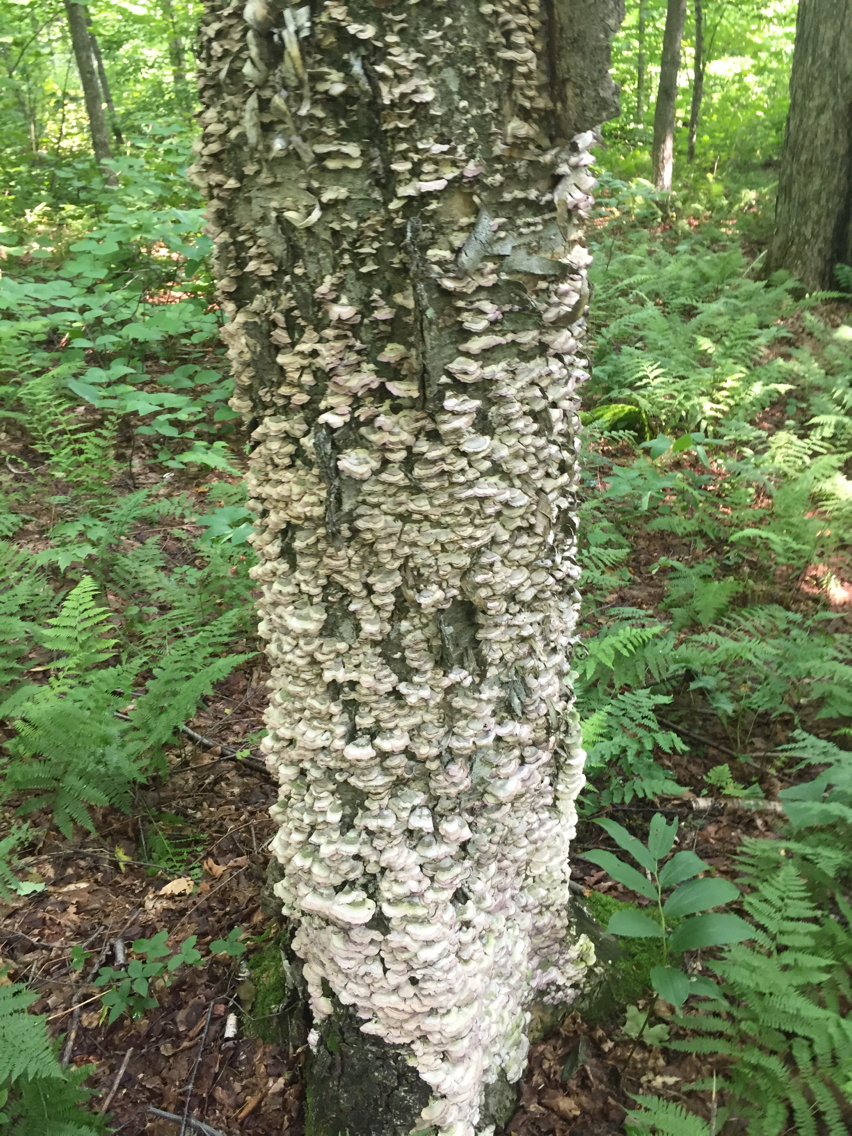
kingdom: Fungi
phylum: Basidiomycota
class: Agaricomycetes
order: Polyporales
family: Polyporaceae
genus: Trametes
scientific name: Trametes versicolor
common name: Turkeytail
